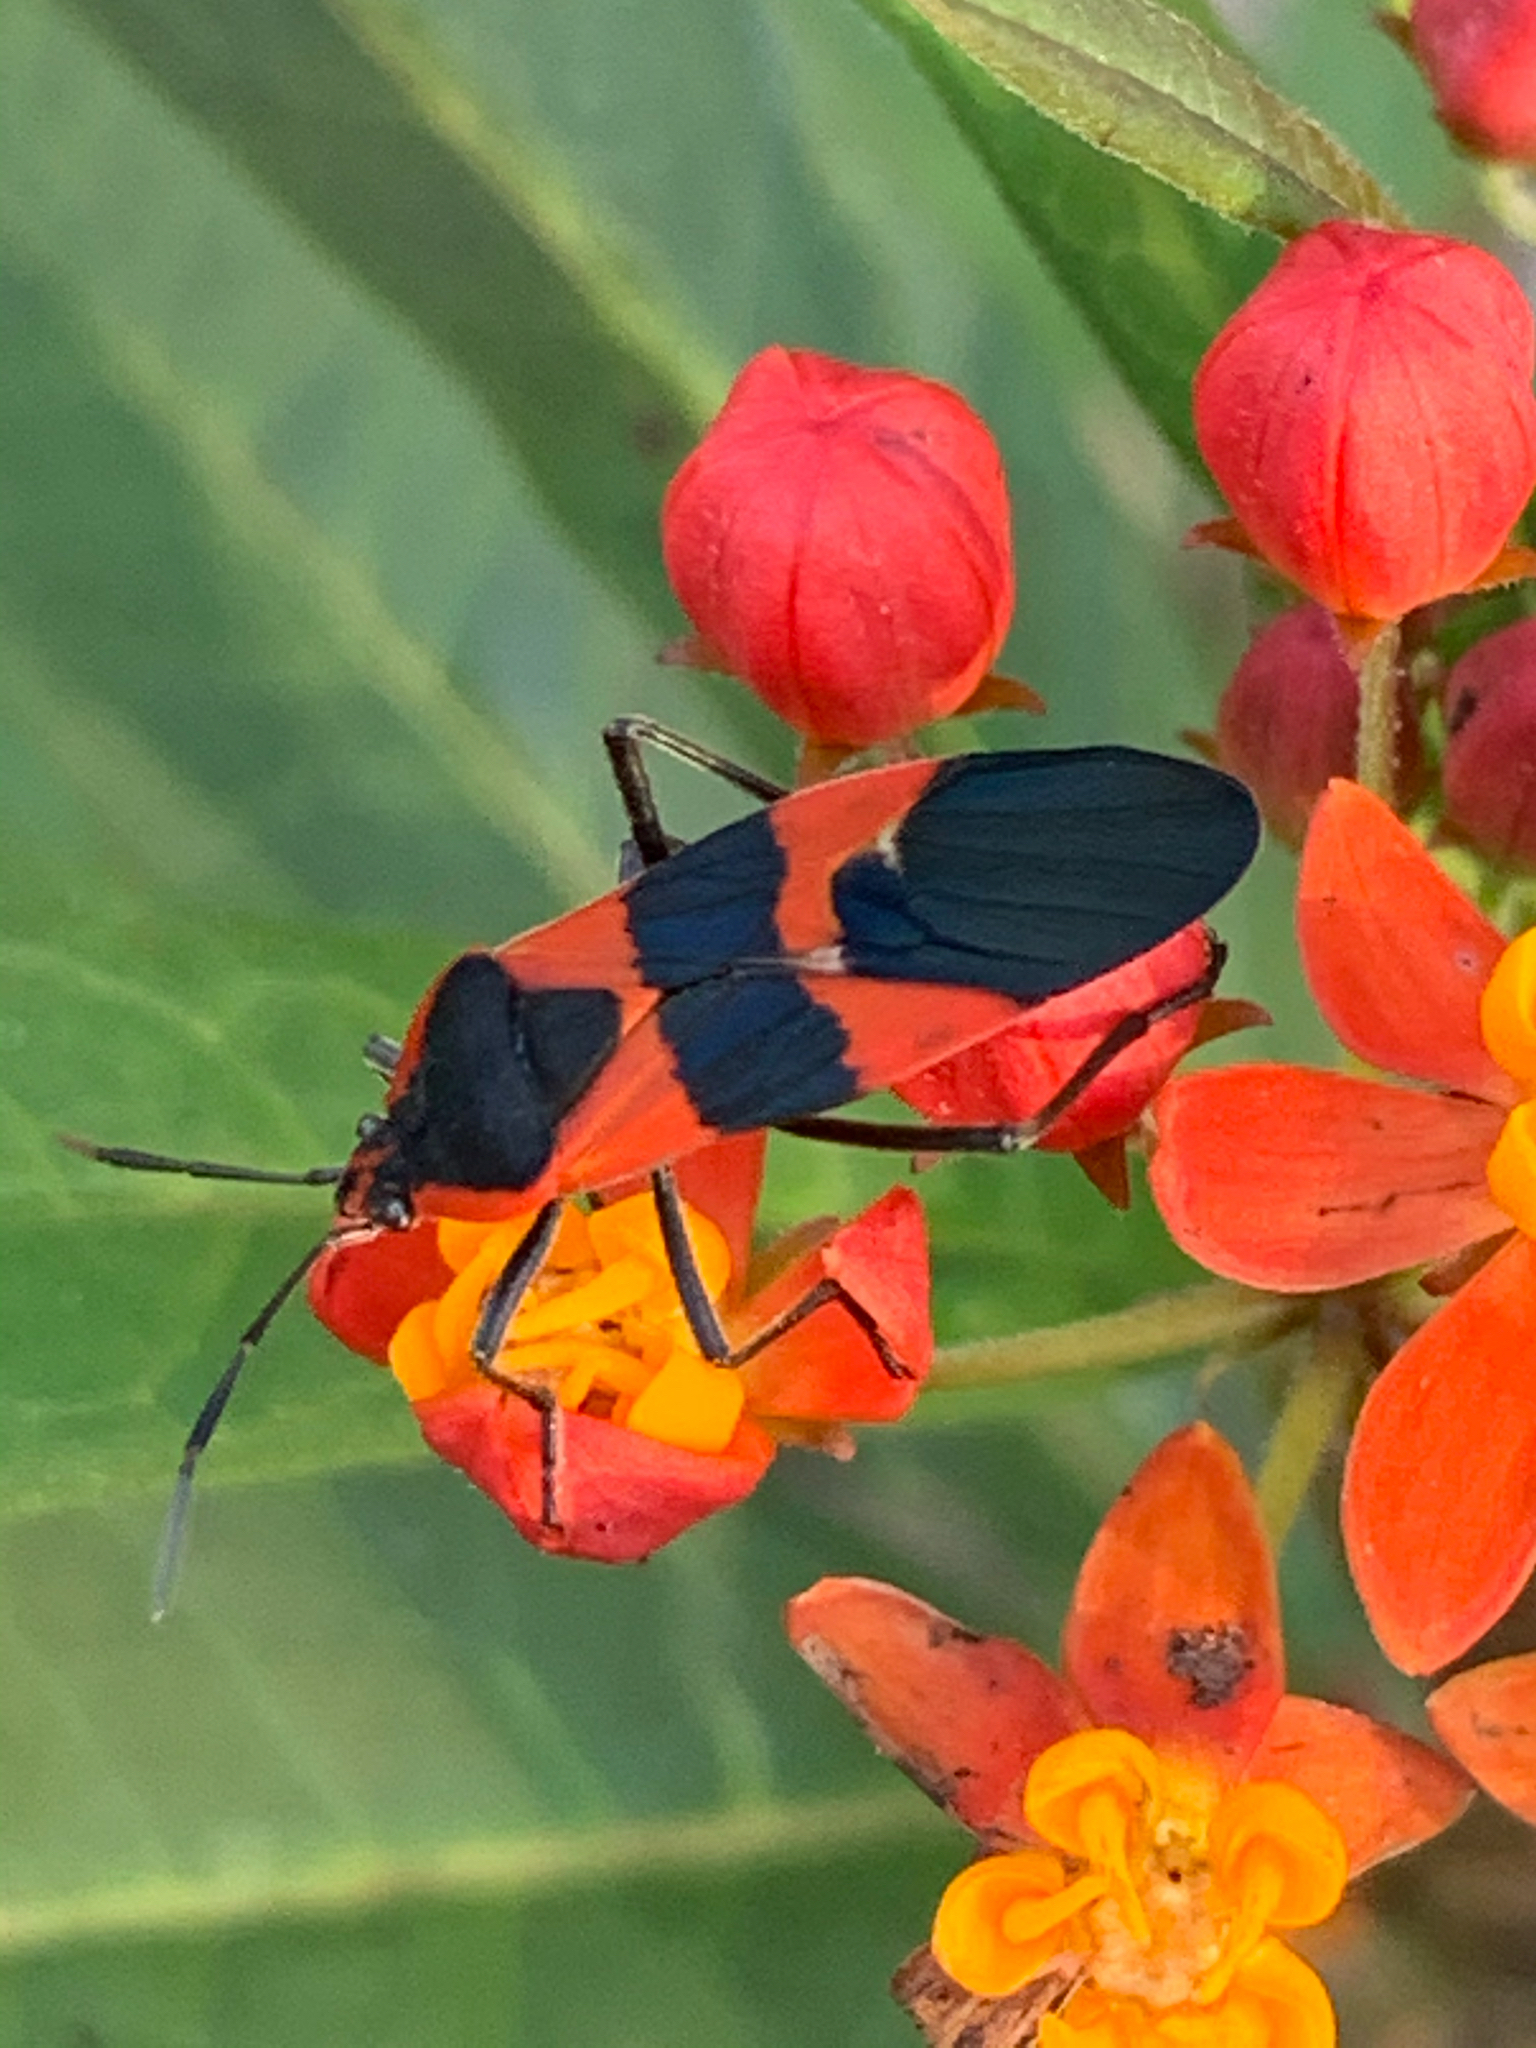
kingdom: Animalia
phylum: Arthropoda
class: Insecta
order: Hemiptera
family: Lygaeidae
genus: Oncopeltus
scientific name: Oncopeltus fasciatus
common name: Large milkweed bug
